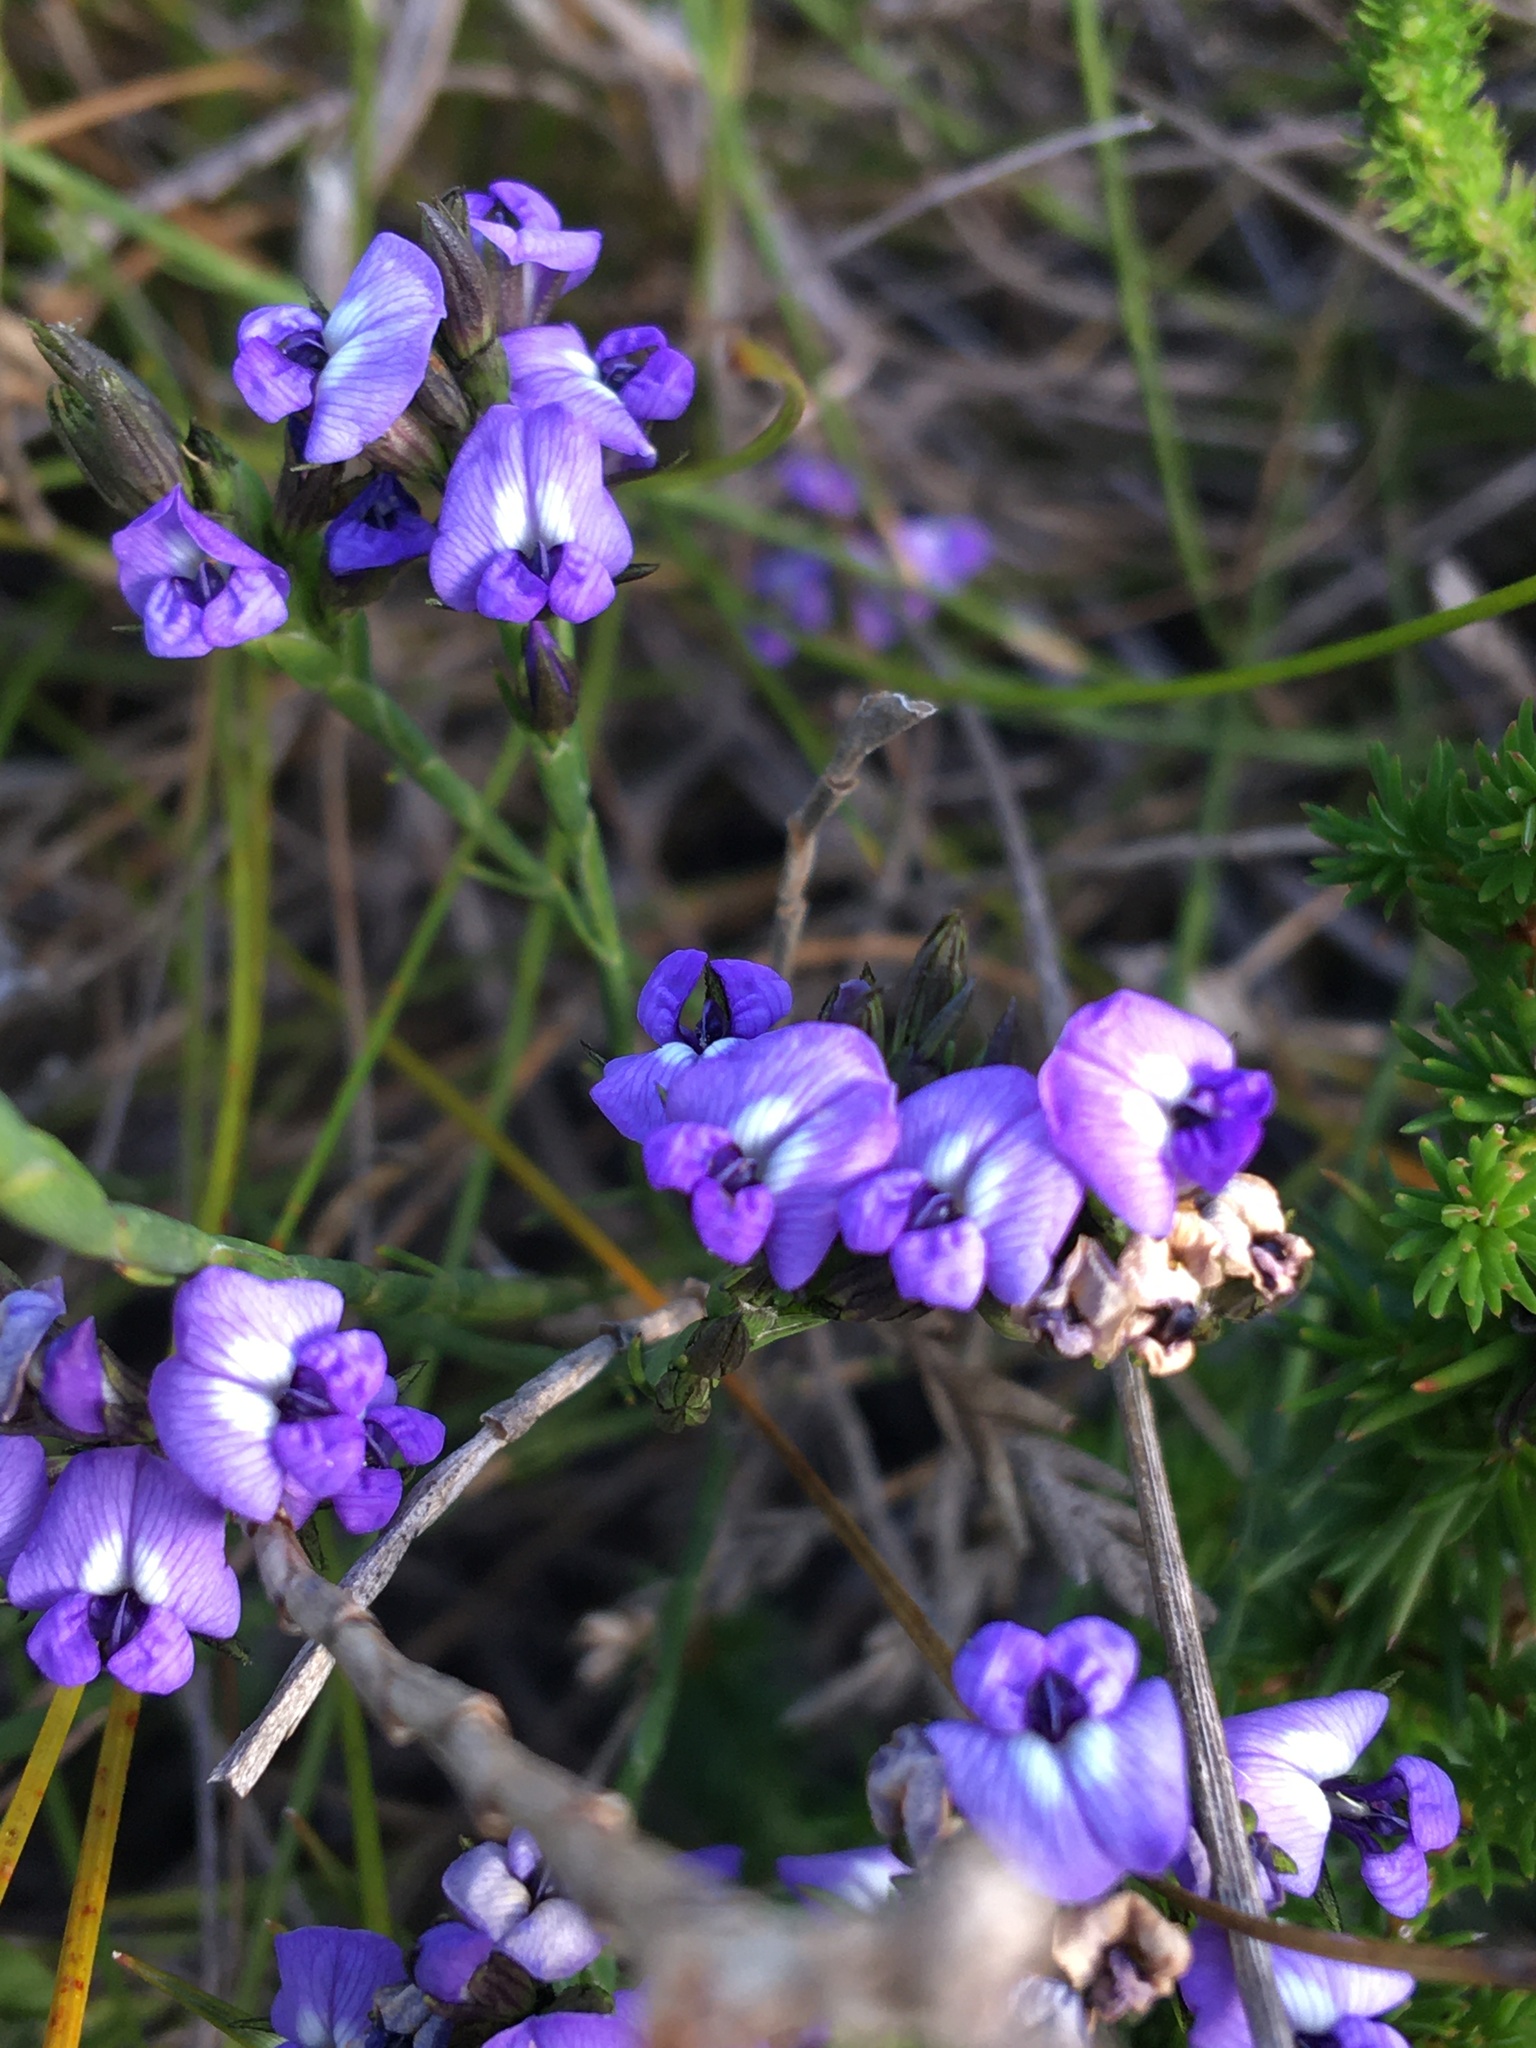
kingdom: Plantae
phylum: Tracheophyta
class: Magnoliopsida
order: Fabales
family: Fabaceae
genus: Psoralea
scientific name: Psoralea restioides
